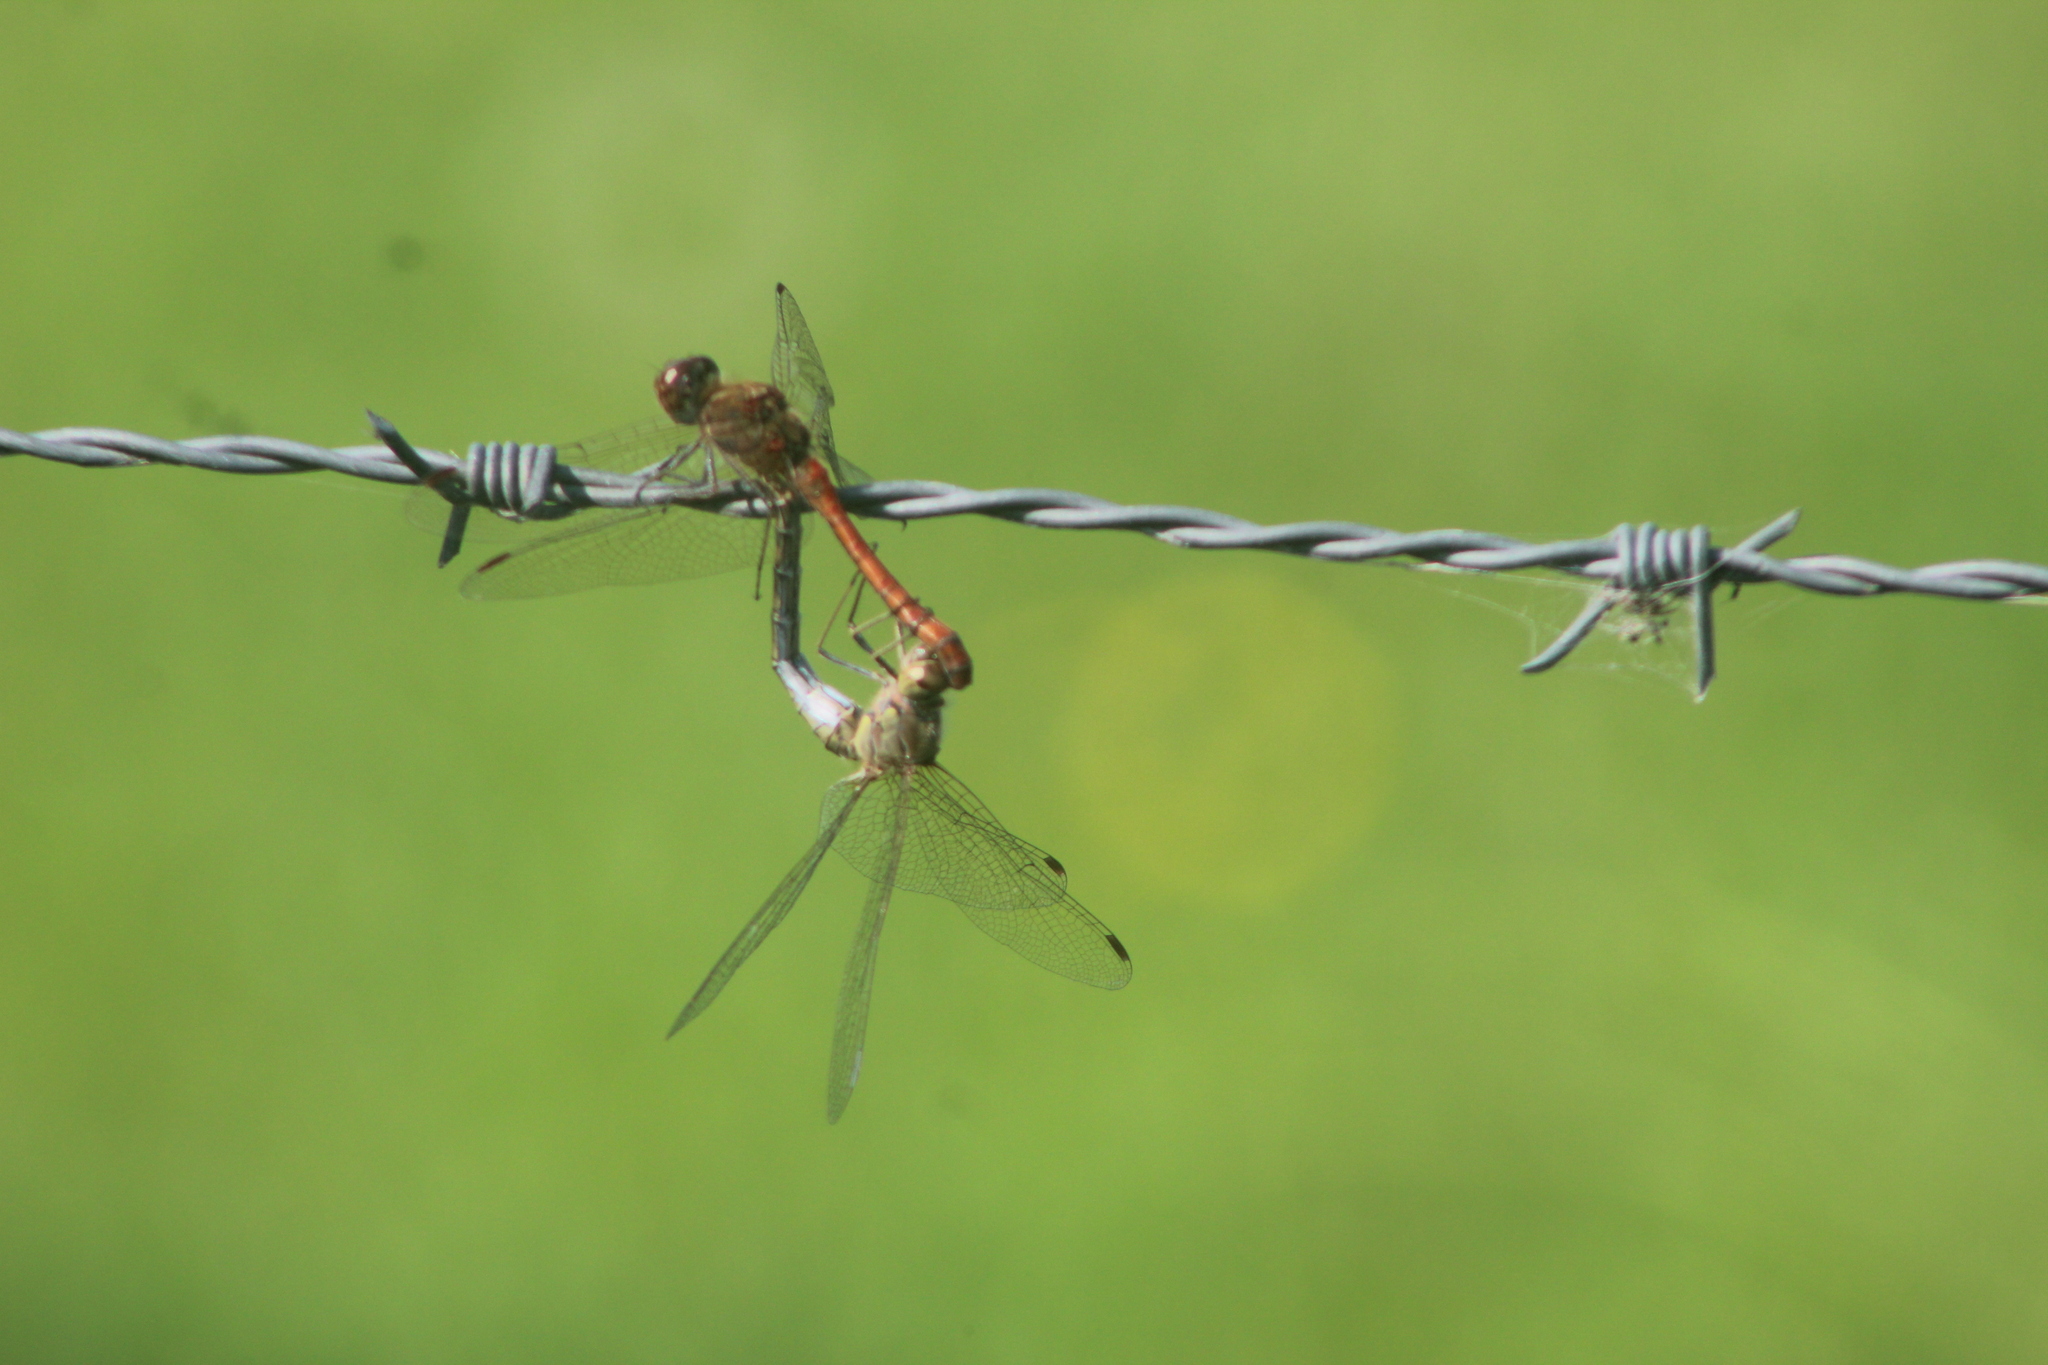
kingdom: Animalia
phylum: Arthropoda
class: Insecta
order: Odonata
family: Libellulidae
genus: Sympetrum
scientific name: Sympetrum striolatum
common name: Common darter
